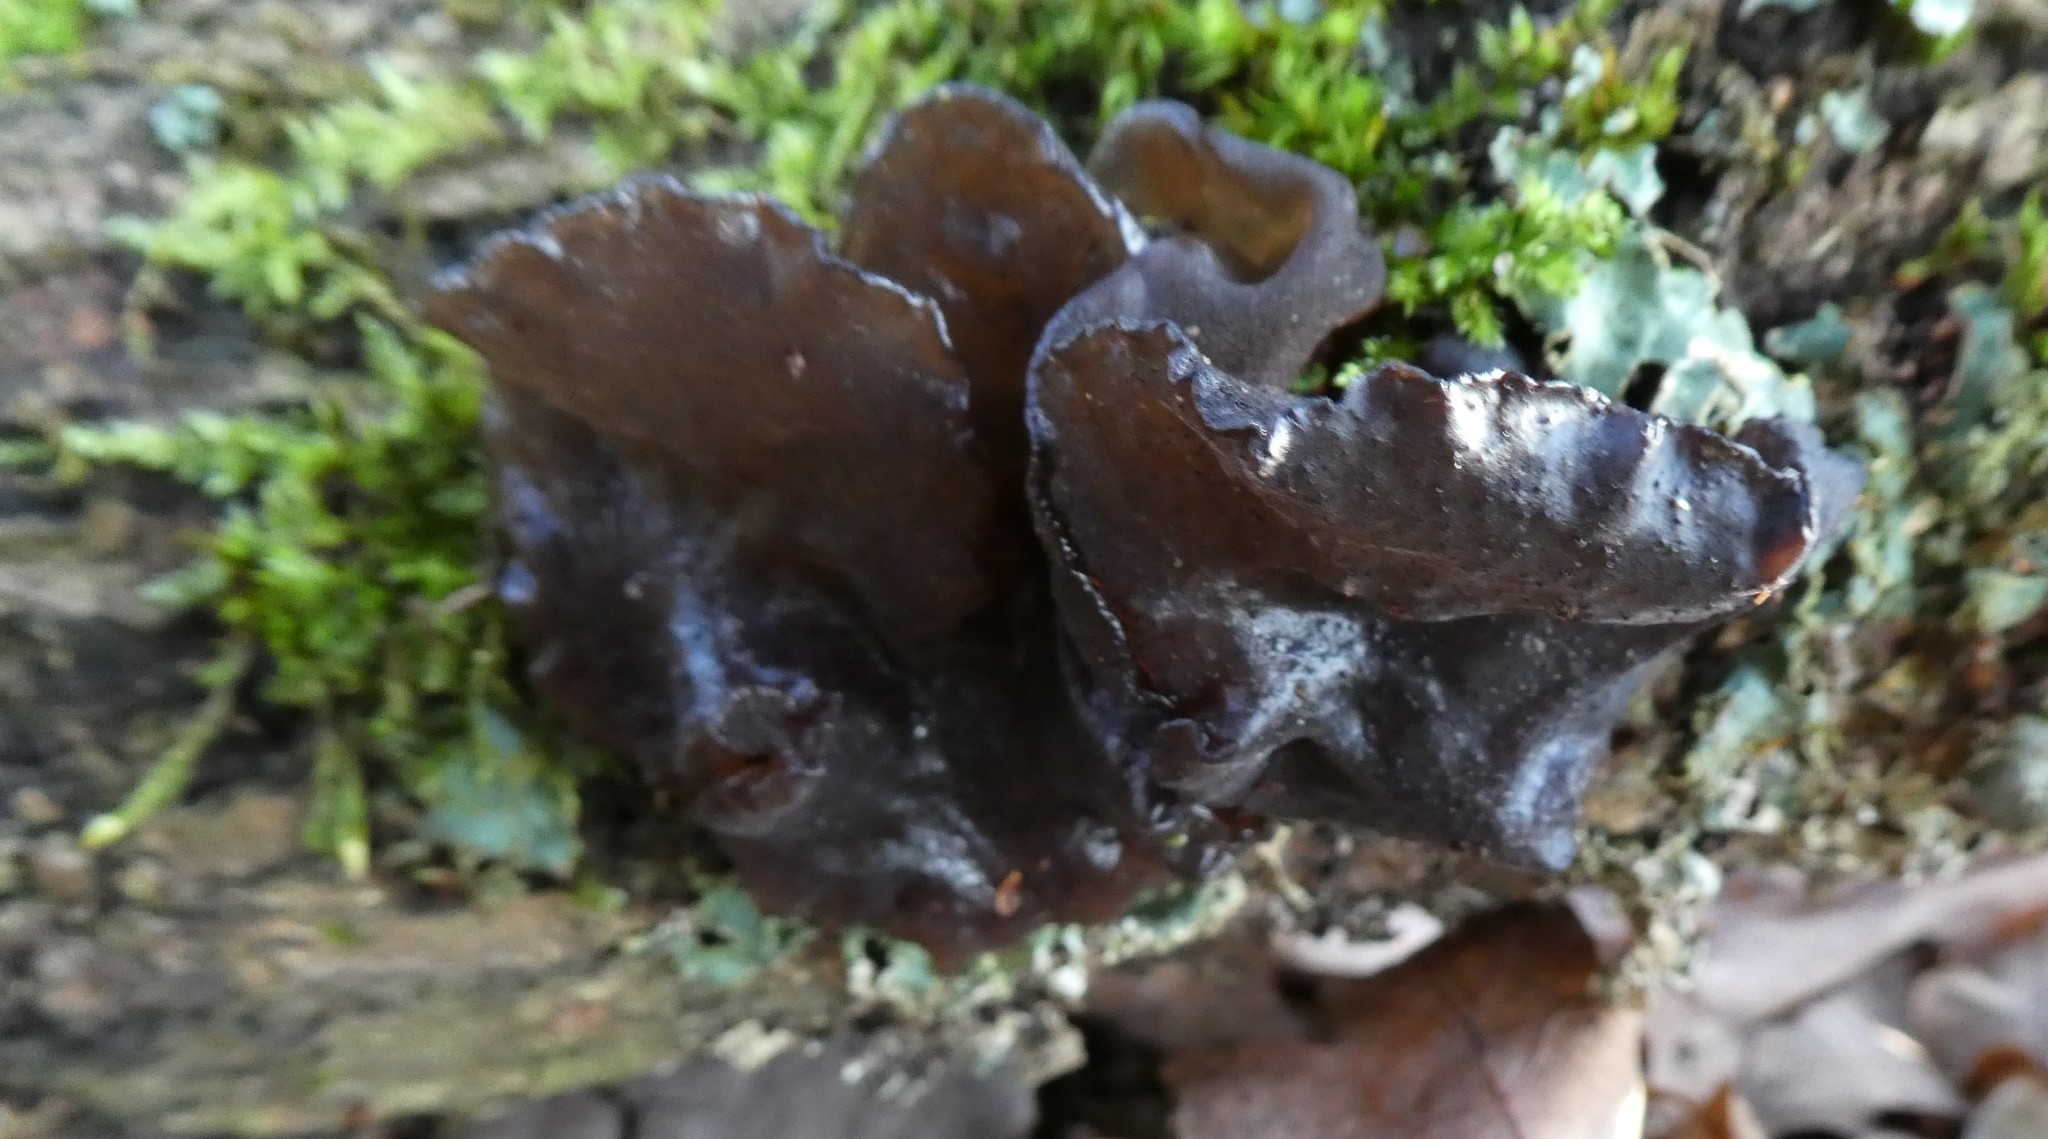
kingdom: Fungi
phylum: Basidiomycota
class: Agaricomycetes
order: Auriculariales
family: Auriculariaceae
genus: Exidia
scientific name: Exidia glandulosa
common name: Witches' butter
